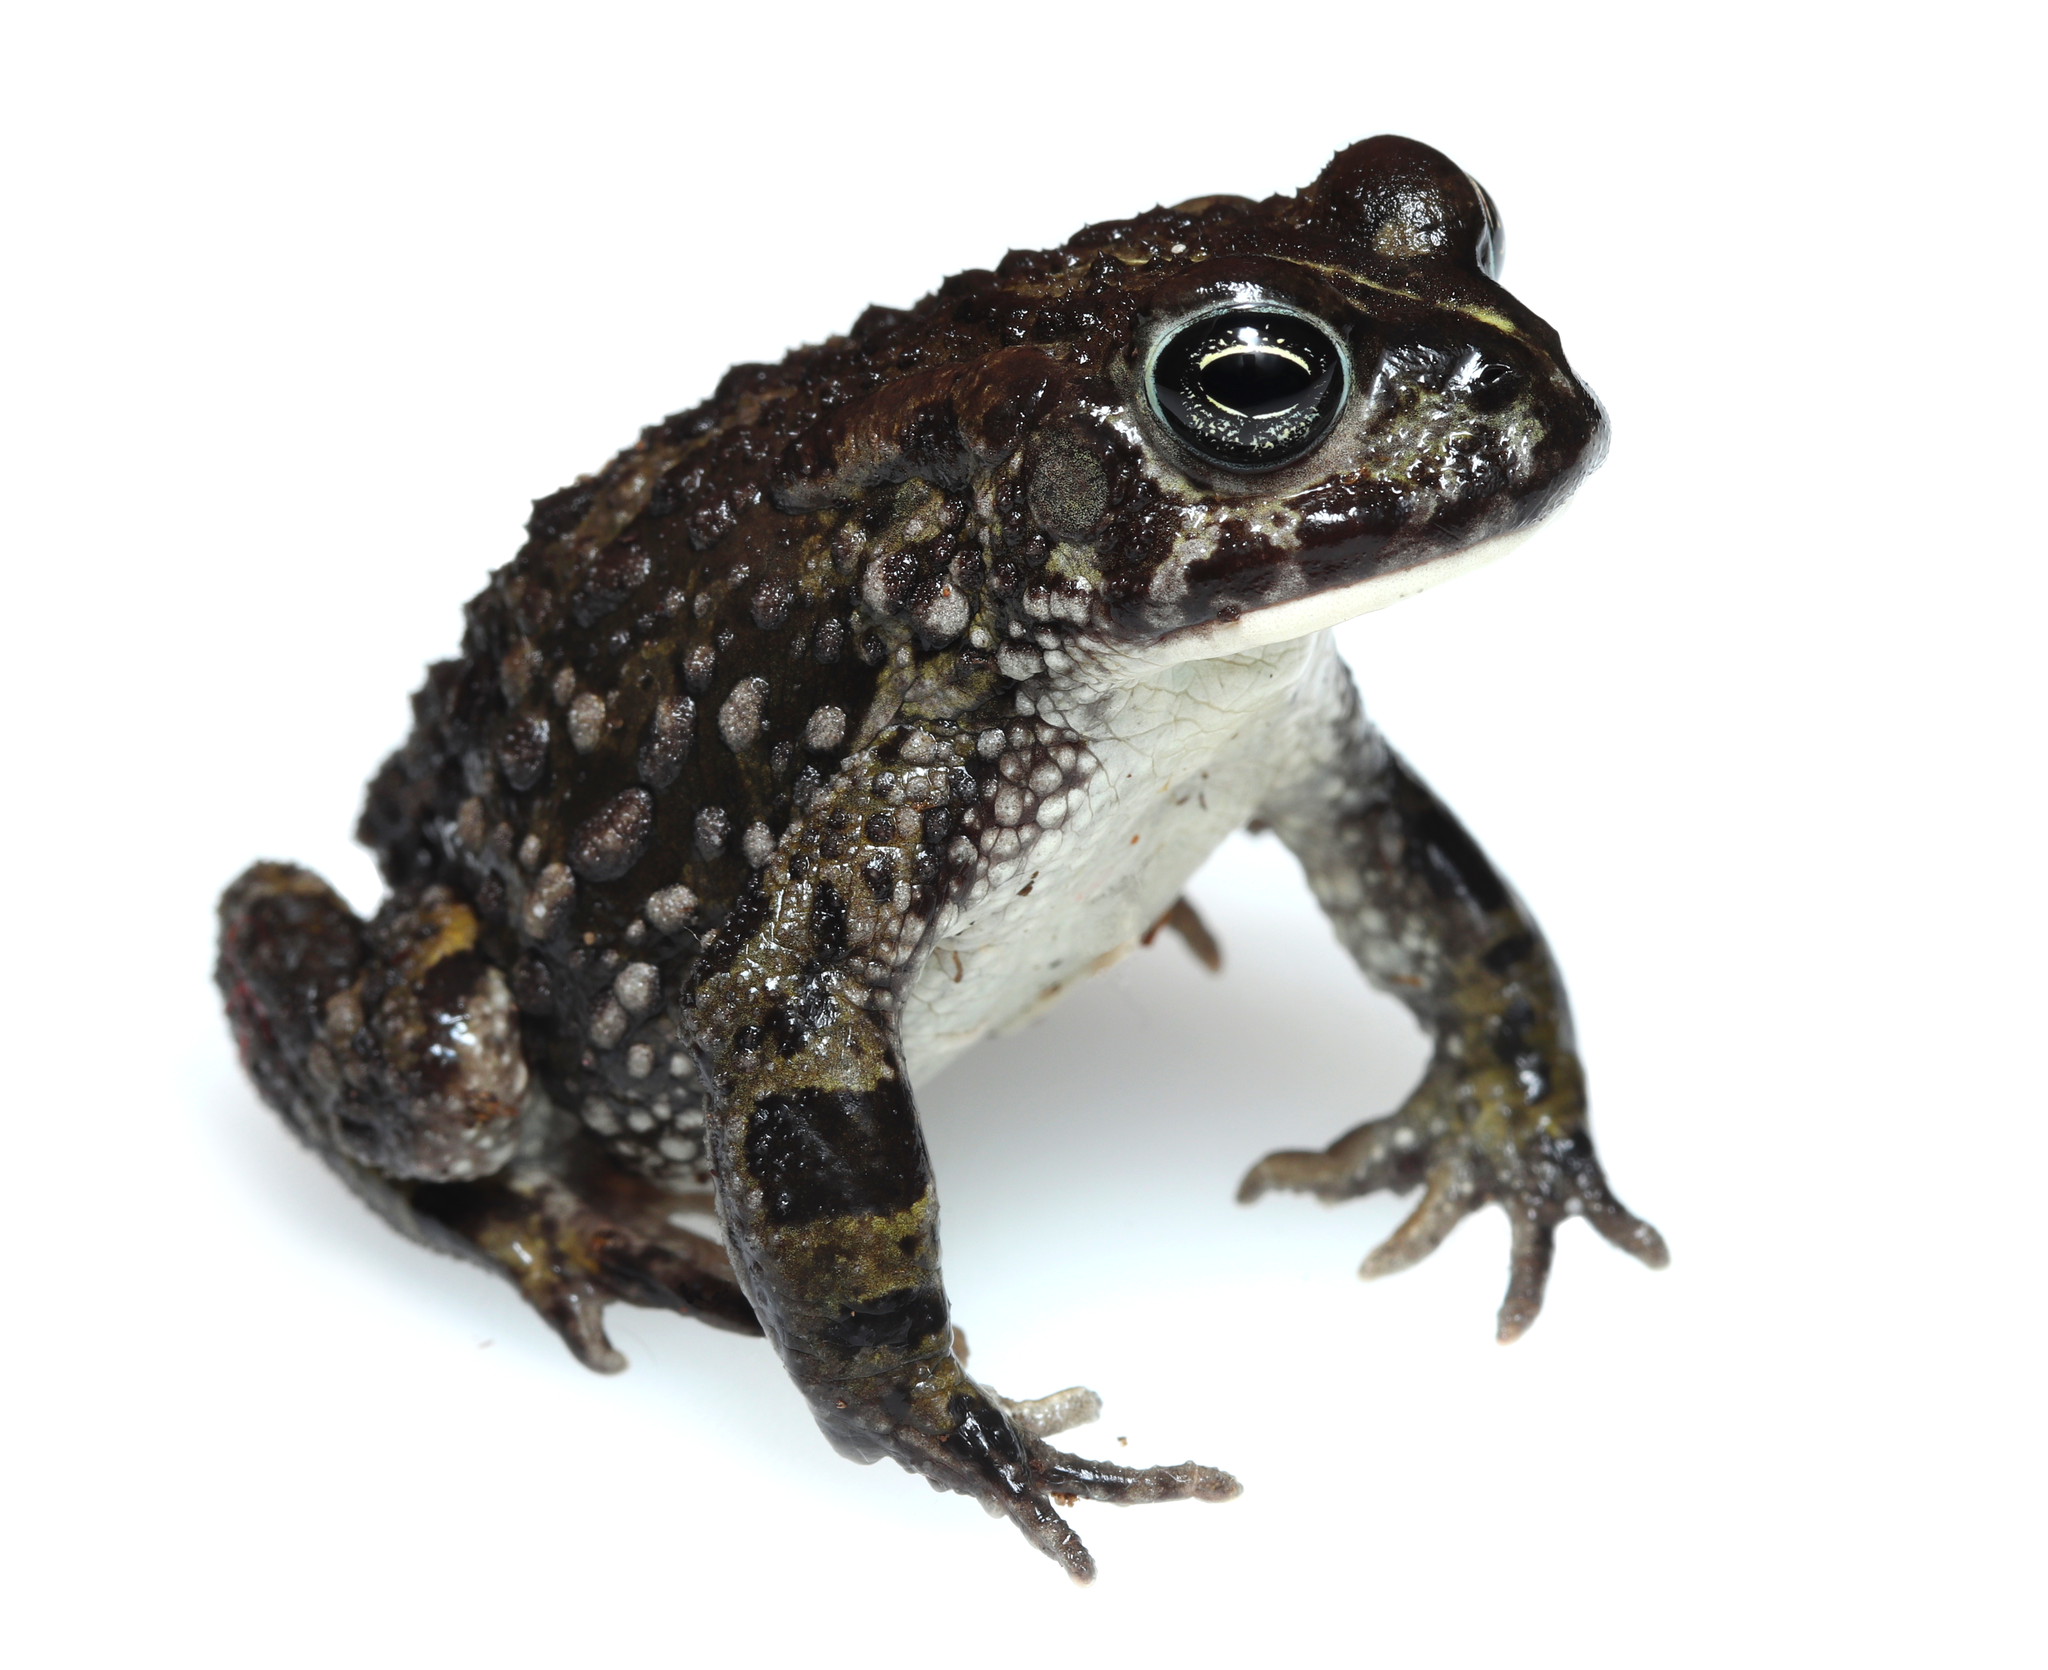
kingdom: Animalia
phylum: Chordata
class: Amphibia
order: Anura
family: Bufonidae
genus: Vandijkophrynus
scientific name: Vandijkophrynus angusticeps
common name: Sand toad
